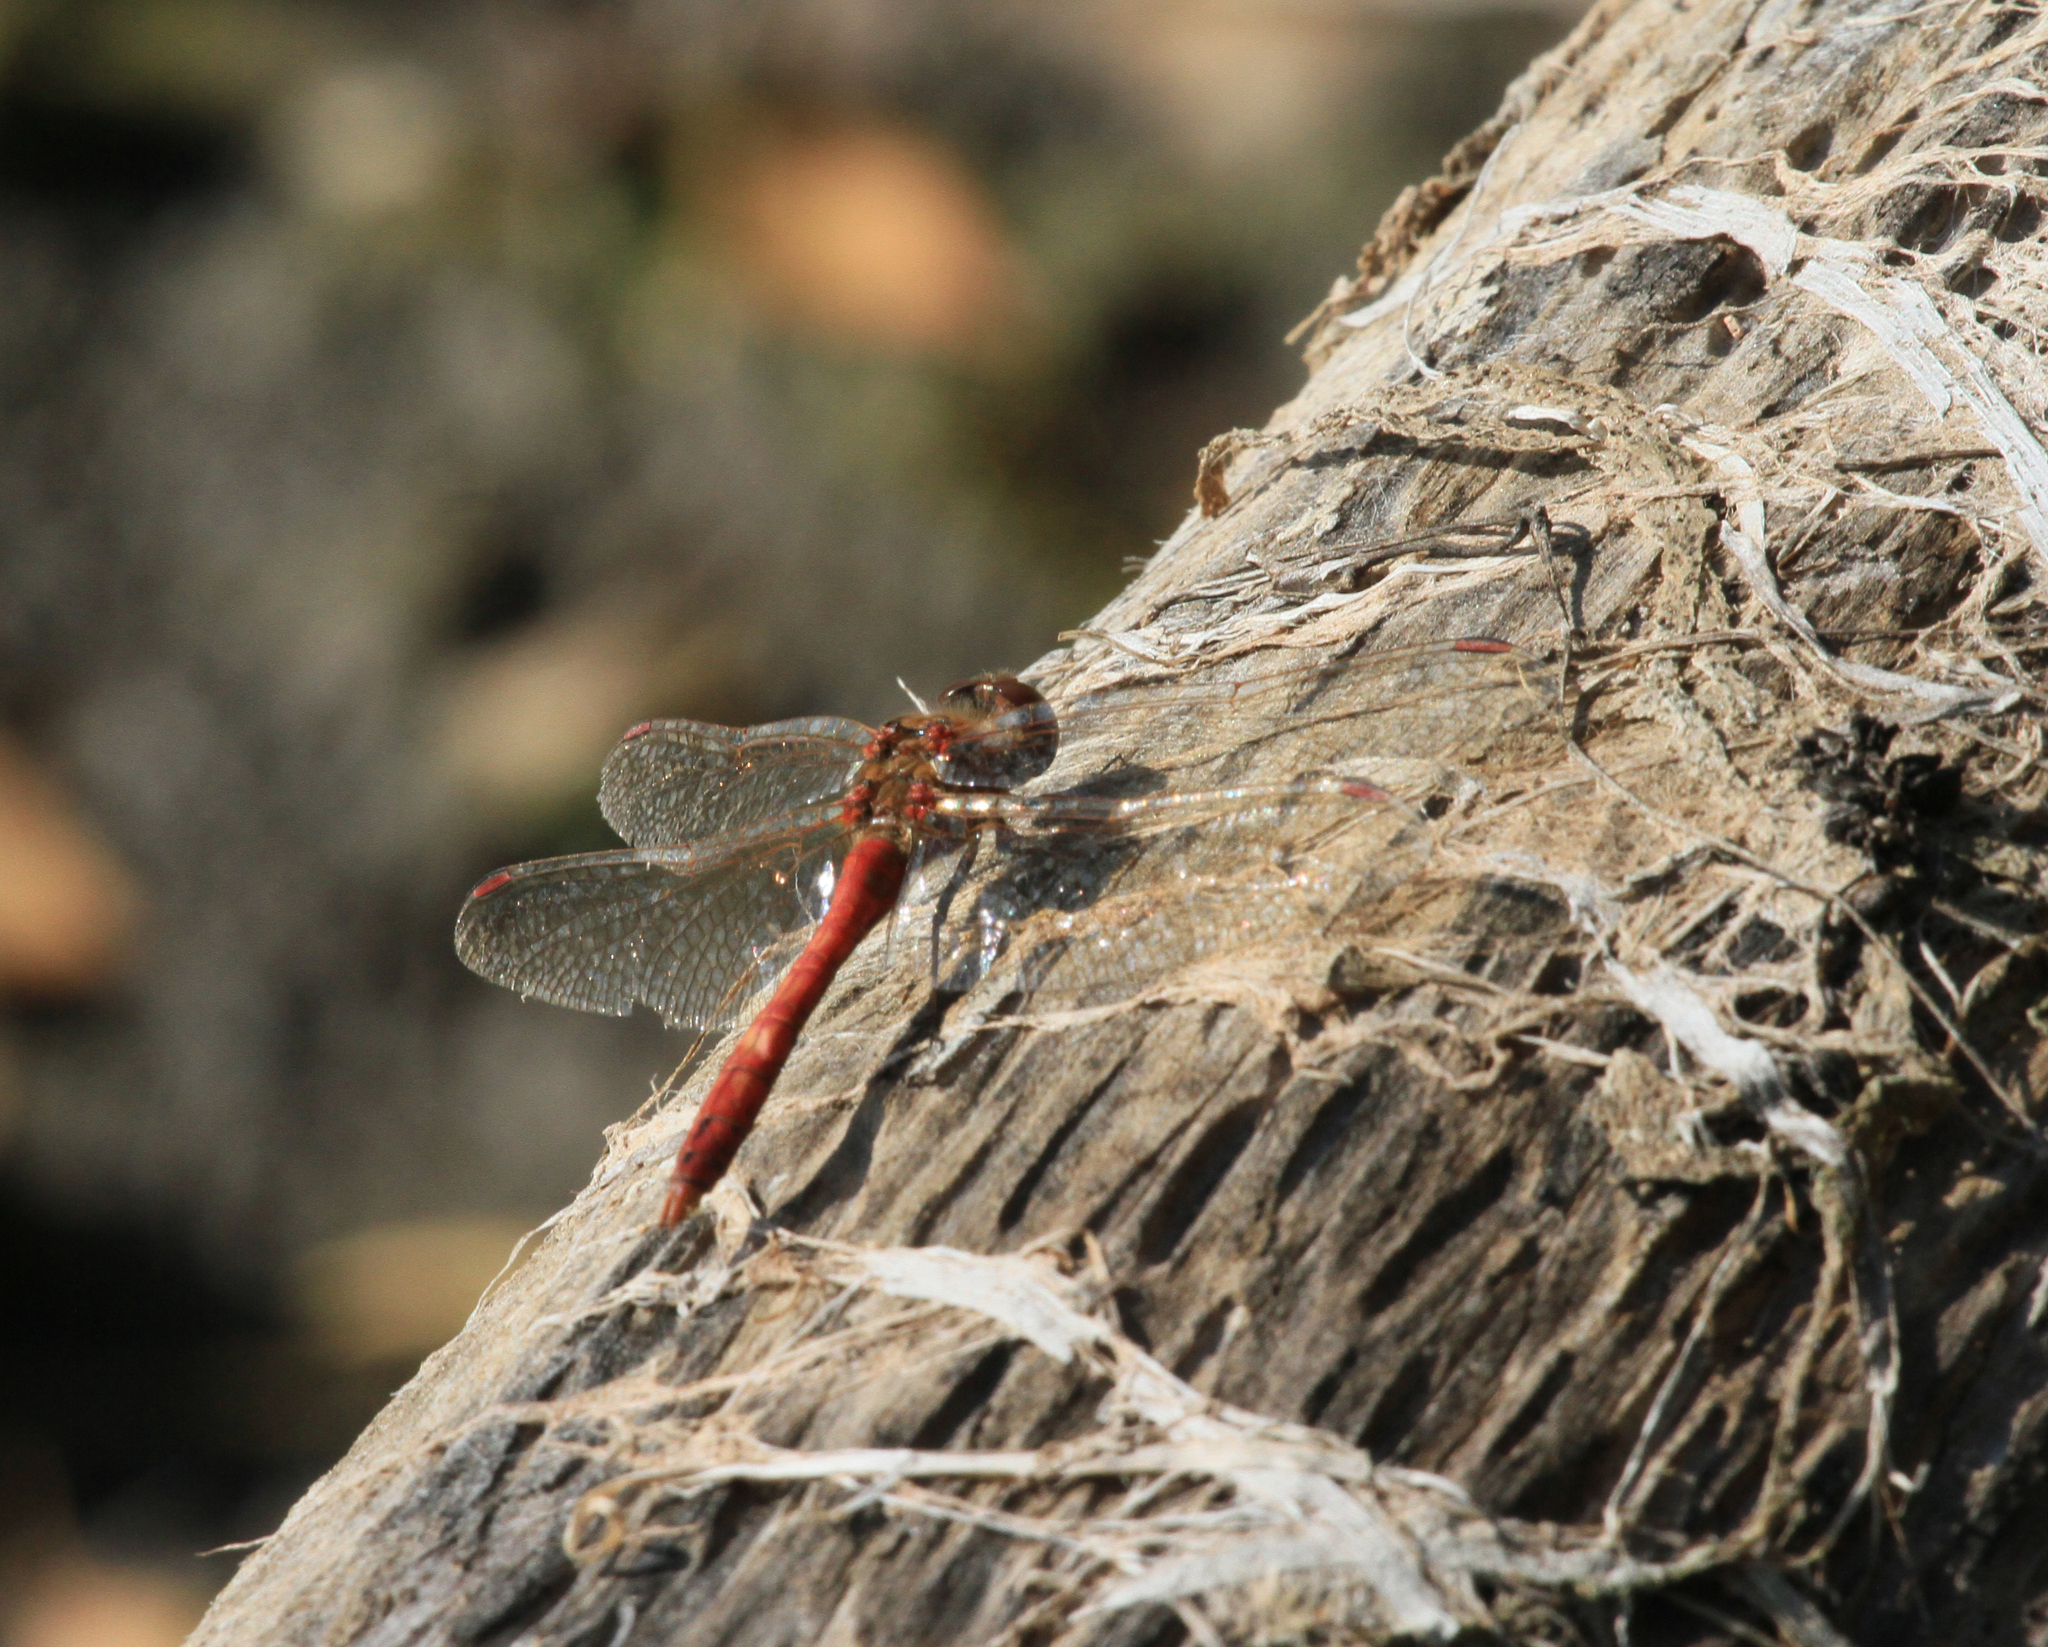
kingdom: Animalia
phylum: Arthropoda
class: Insecta
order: Odonata
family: Libellulidae
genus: Sympetrum
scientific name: Sympetrum sanguineum
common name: Ruddy darter
